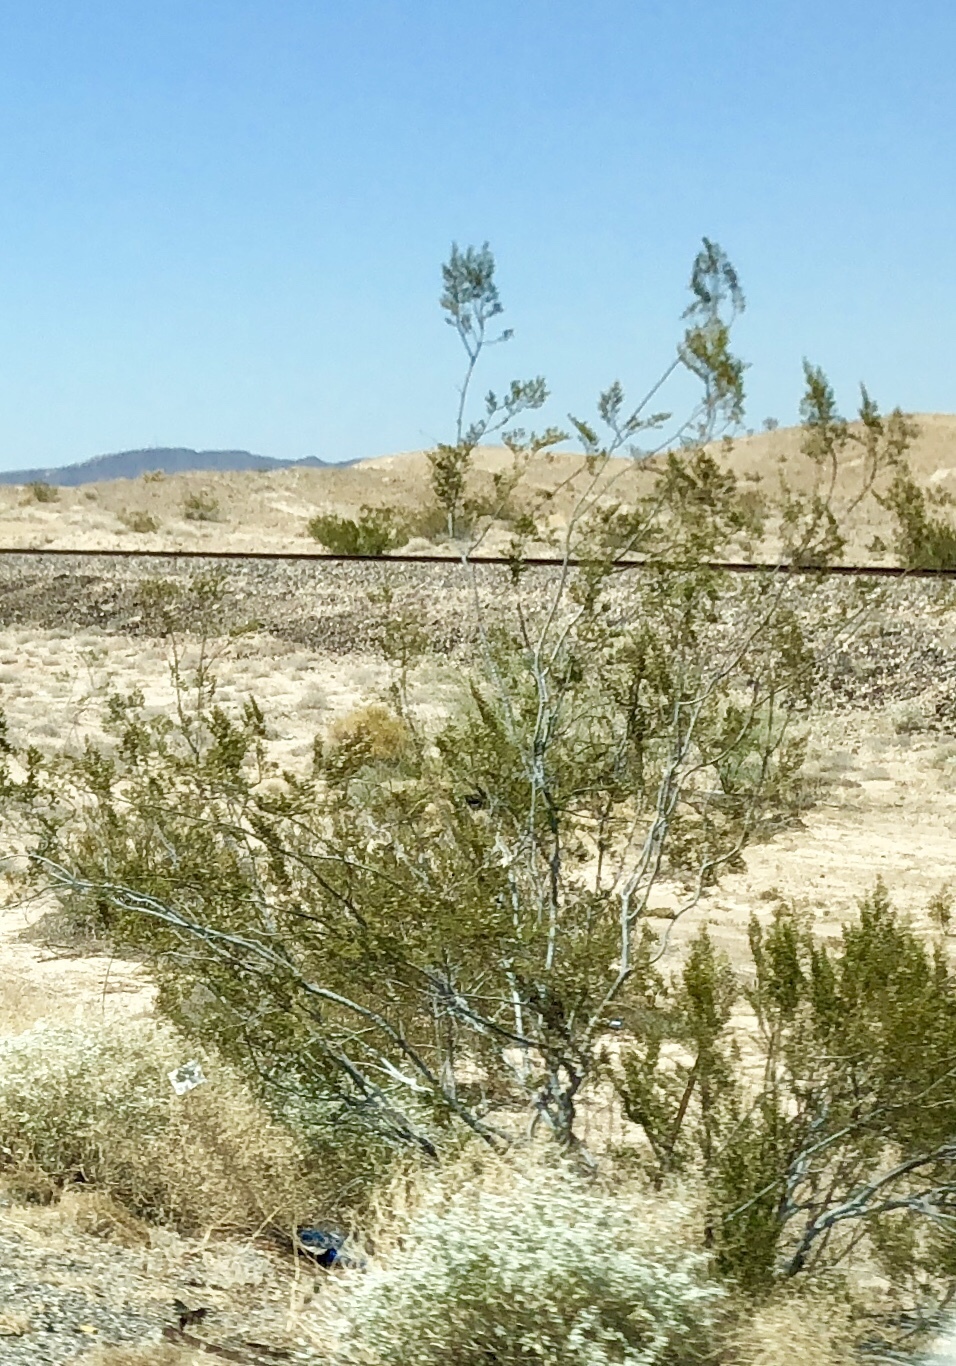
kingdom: Plantae
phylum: Tracheophyta
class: Magnoliopsida
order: Zygophyllales
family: Zygophyllaceae
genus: Larrea
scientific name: Larrea tridentata
